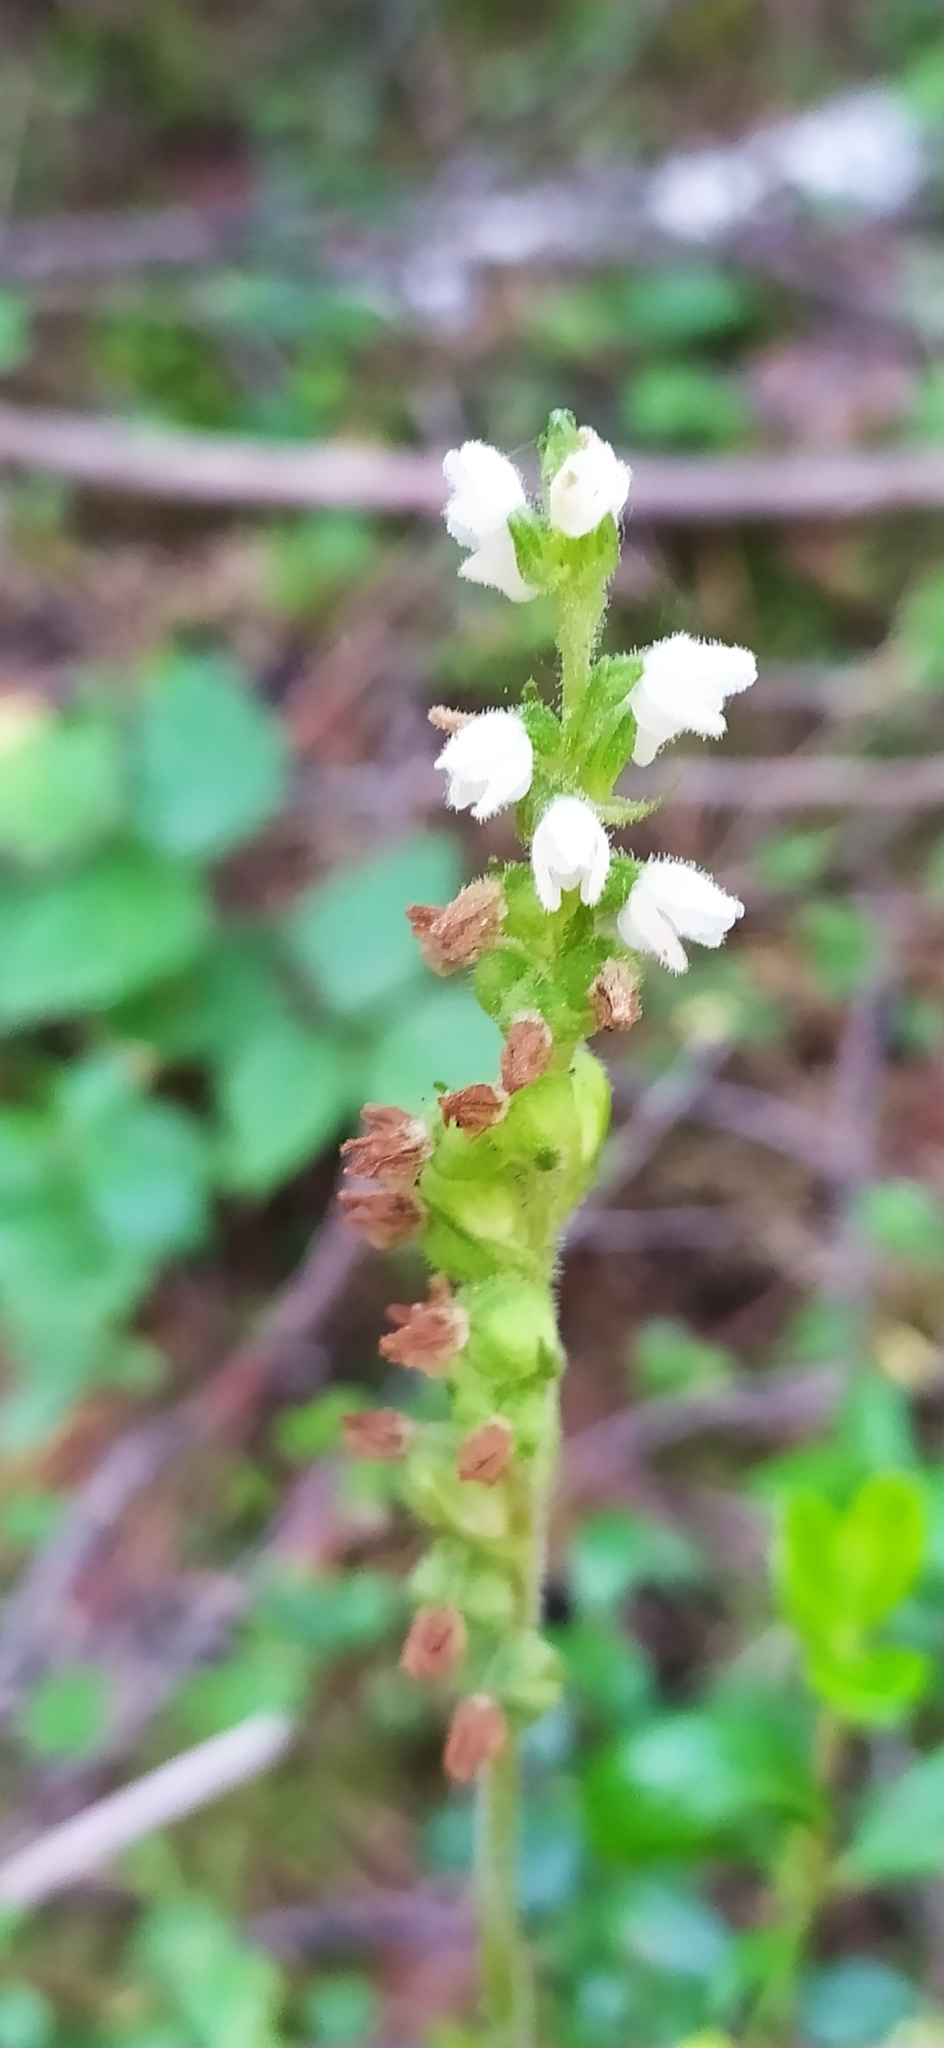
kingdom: Plantae
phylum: Tracheophyta
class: Liliopsida
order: Asparagales
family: Orchidaceae
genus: Goodyera
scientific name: Goodyera repens
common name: Creeping lady's-tresses
